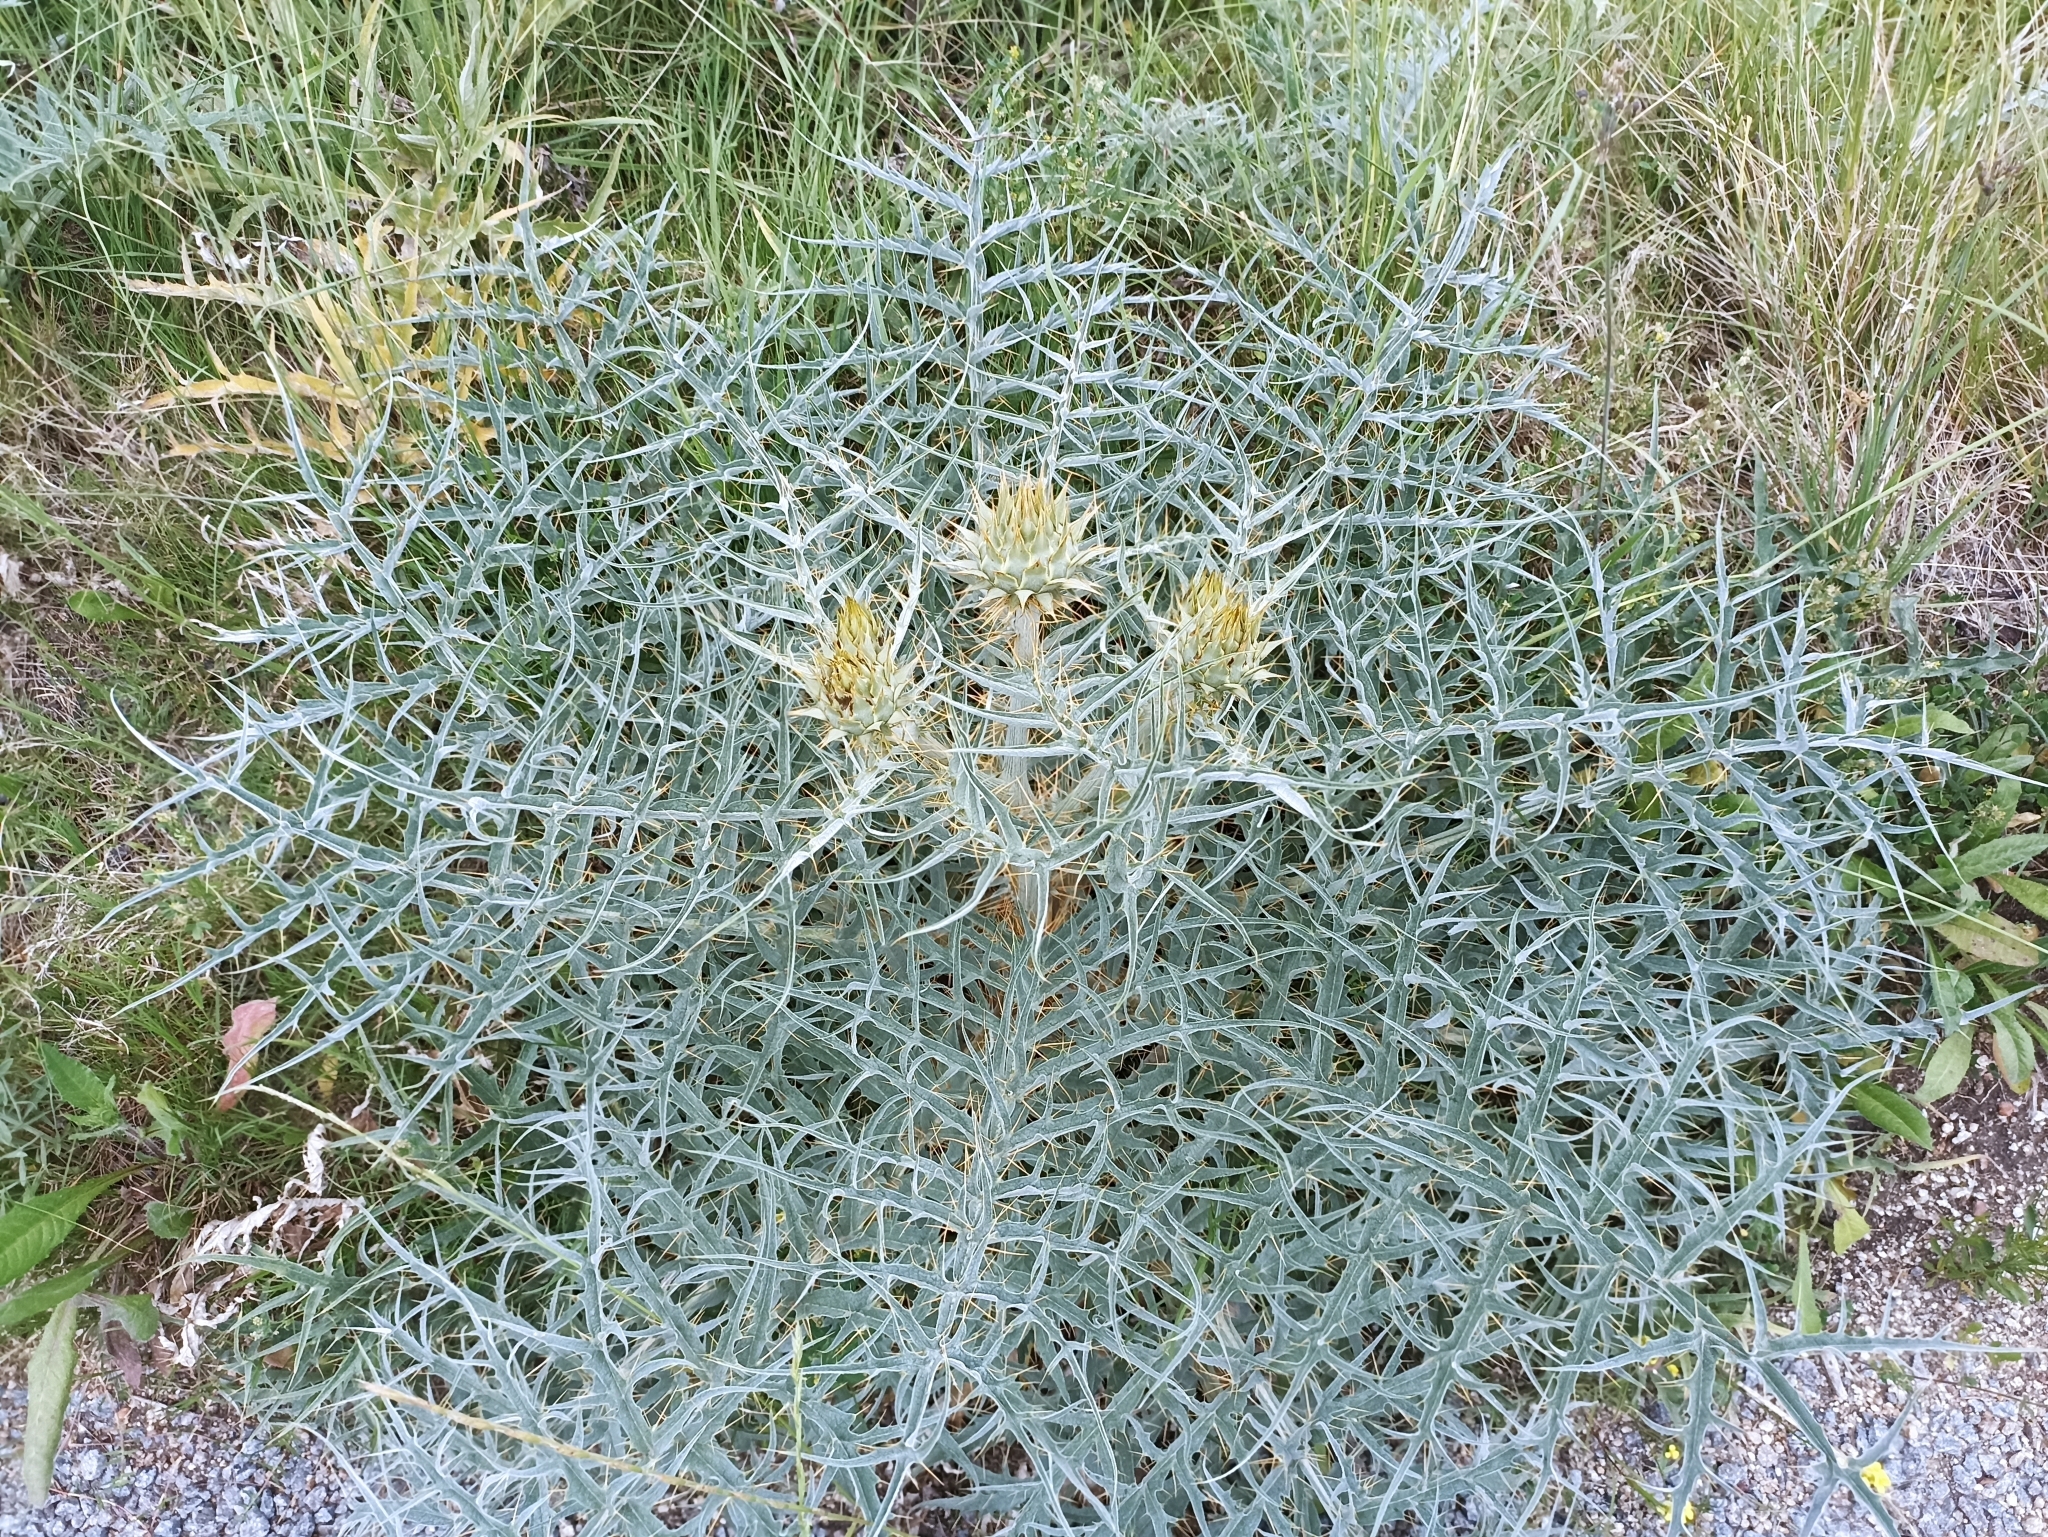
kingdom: Plantae
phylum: Tracheophyta
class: Magnoliopsida
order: Asterales
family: Asteraceae
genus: Cynara
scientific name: Cynara cardunculus
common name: Globe artichoke
